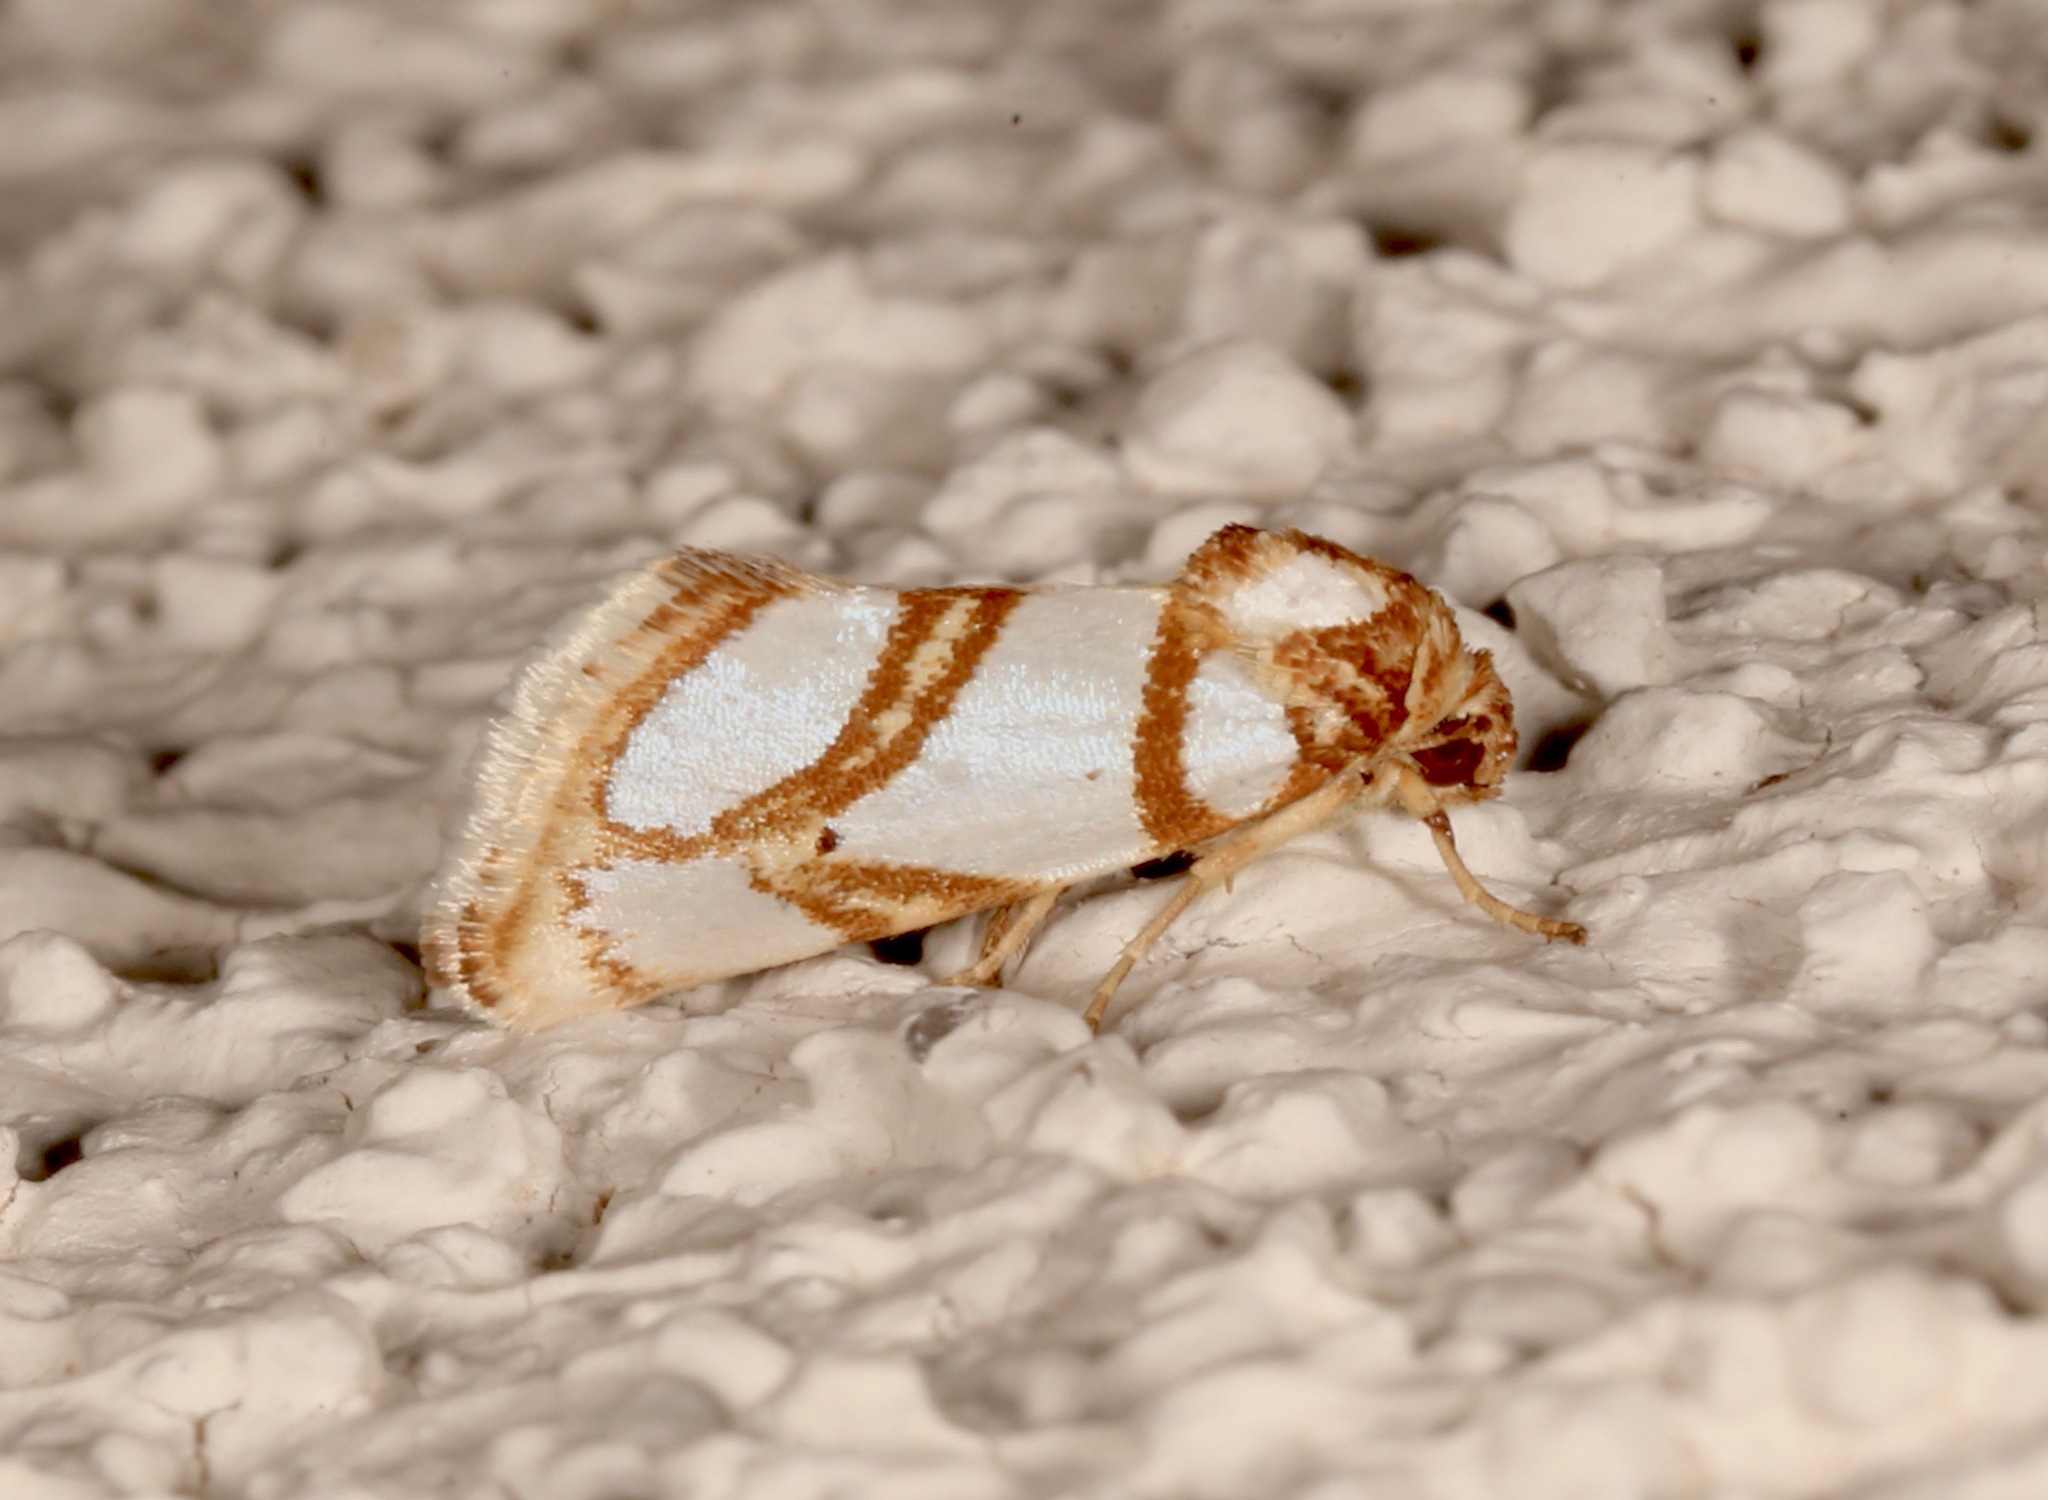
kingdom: Animalia
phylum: Arthropoda
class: Insecta
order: Lepidoptera
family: Noctuidae
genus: Argentostiria
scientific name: Argentostiria koebelei
